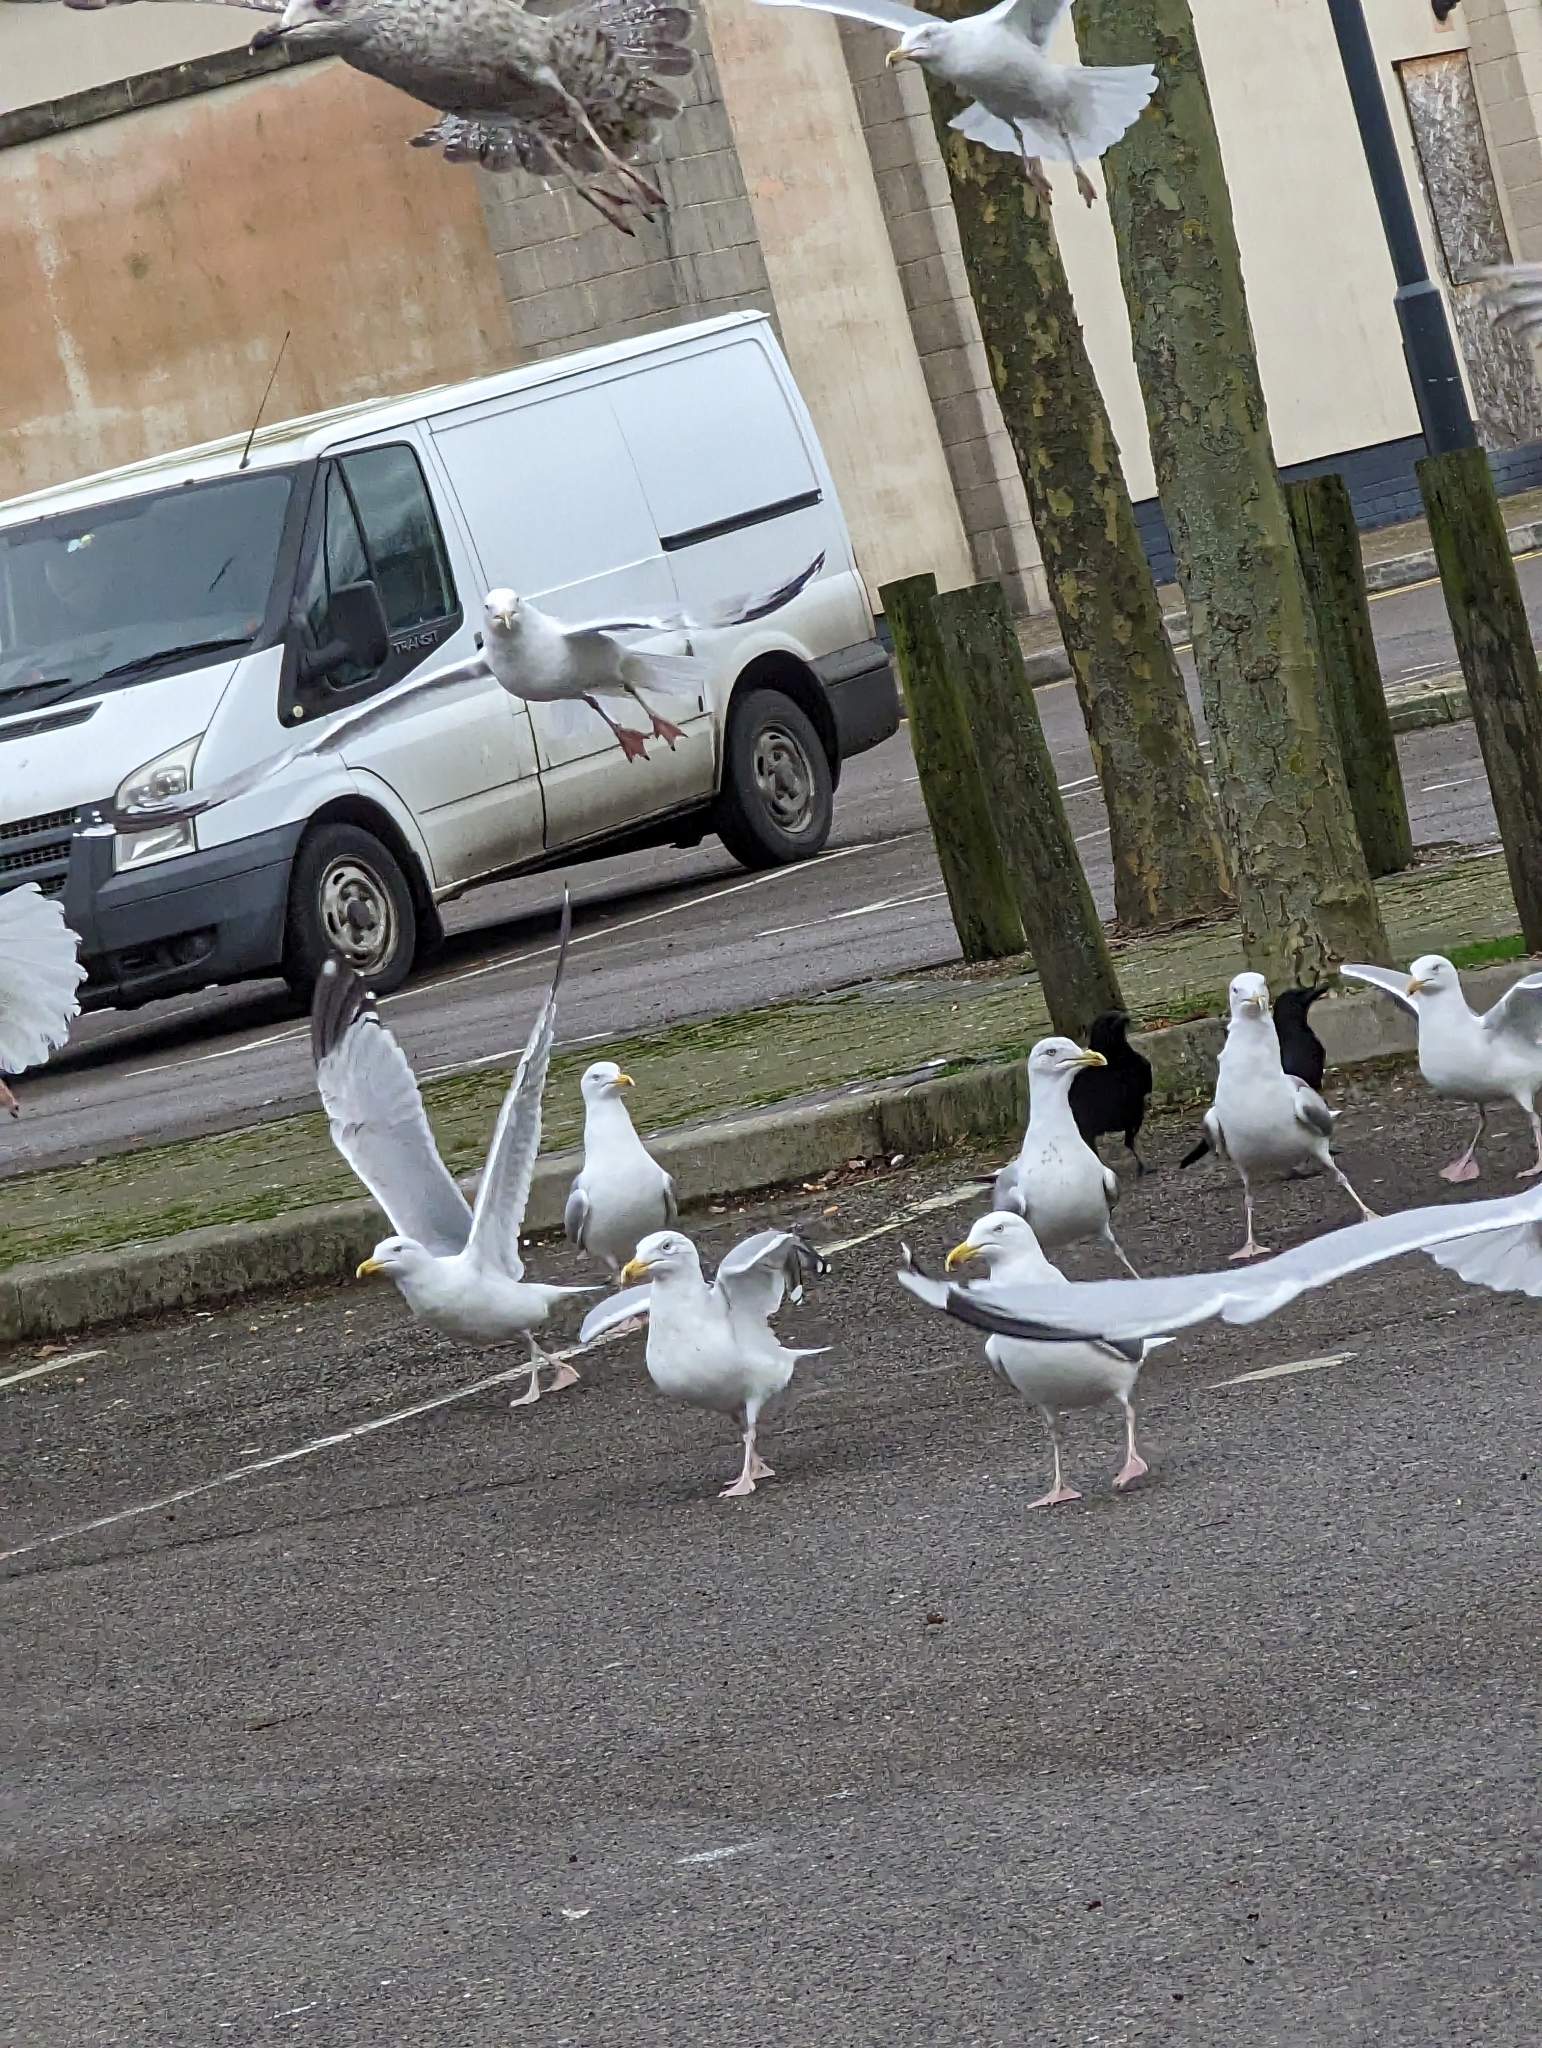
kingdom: Animalia
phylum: Chordata
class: Aves
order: Charadriiformes
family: Laridae
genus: Larus
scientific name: Larus argentatus
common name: Herring gull
